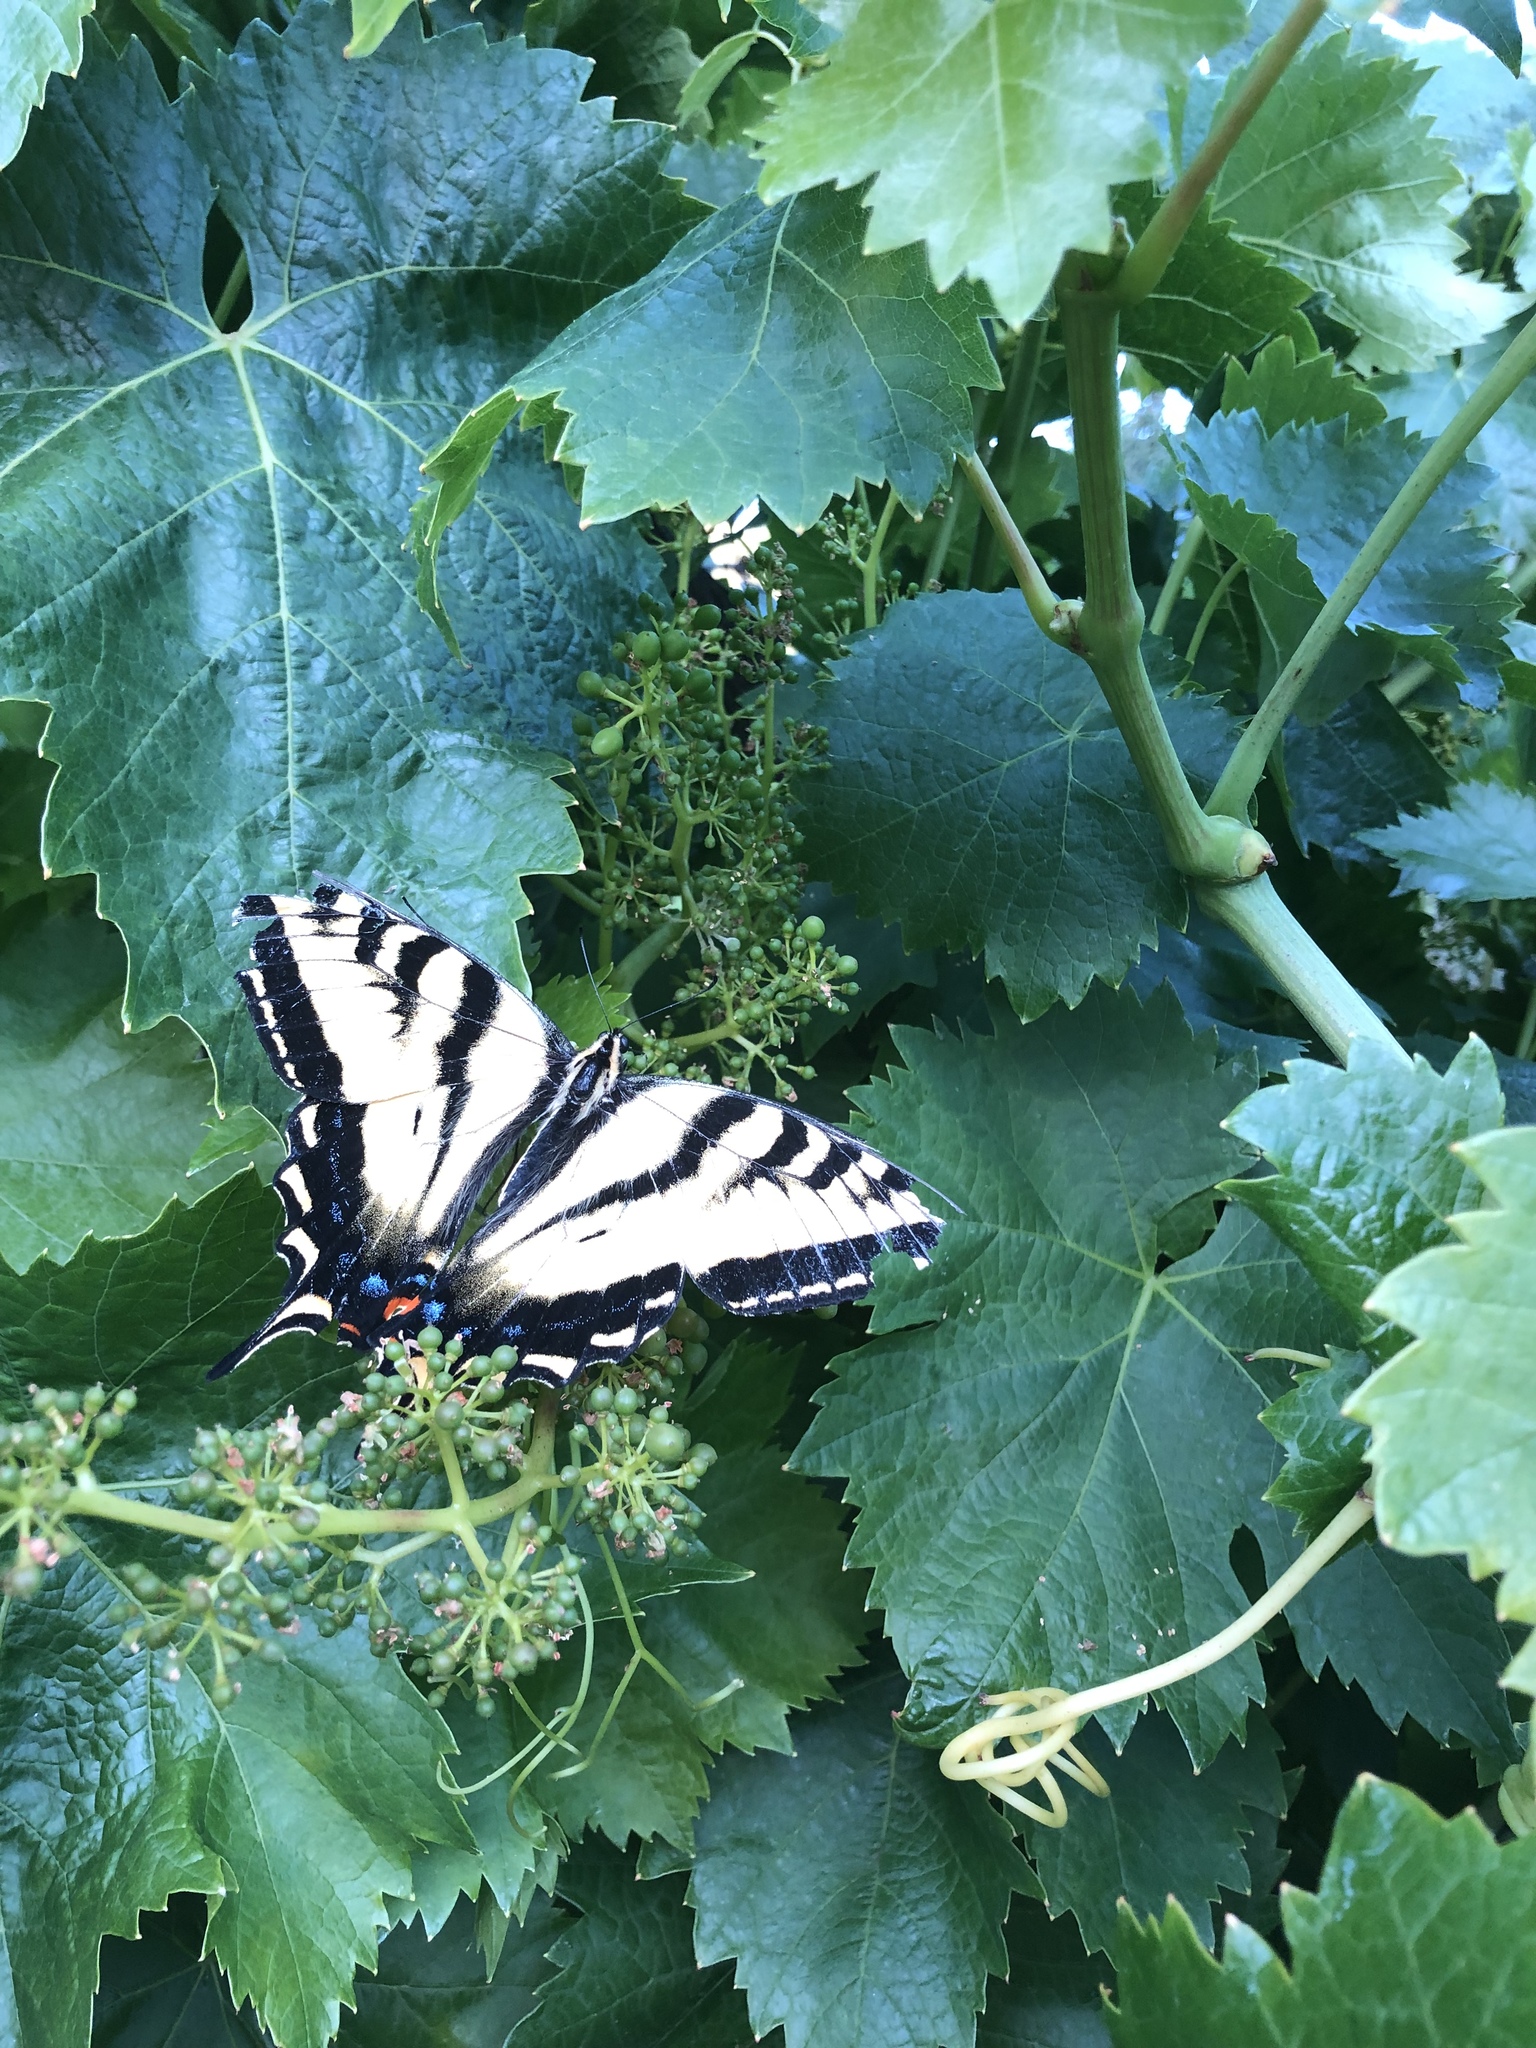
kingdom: Animalia
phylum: Arthropoda
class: Insecta
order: Lepidoptera
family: Papilionidae
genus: Papilio
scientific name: Papilio rutulus
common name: Western tiger swallowtail
